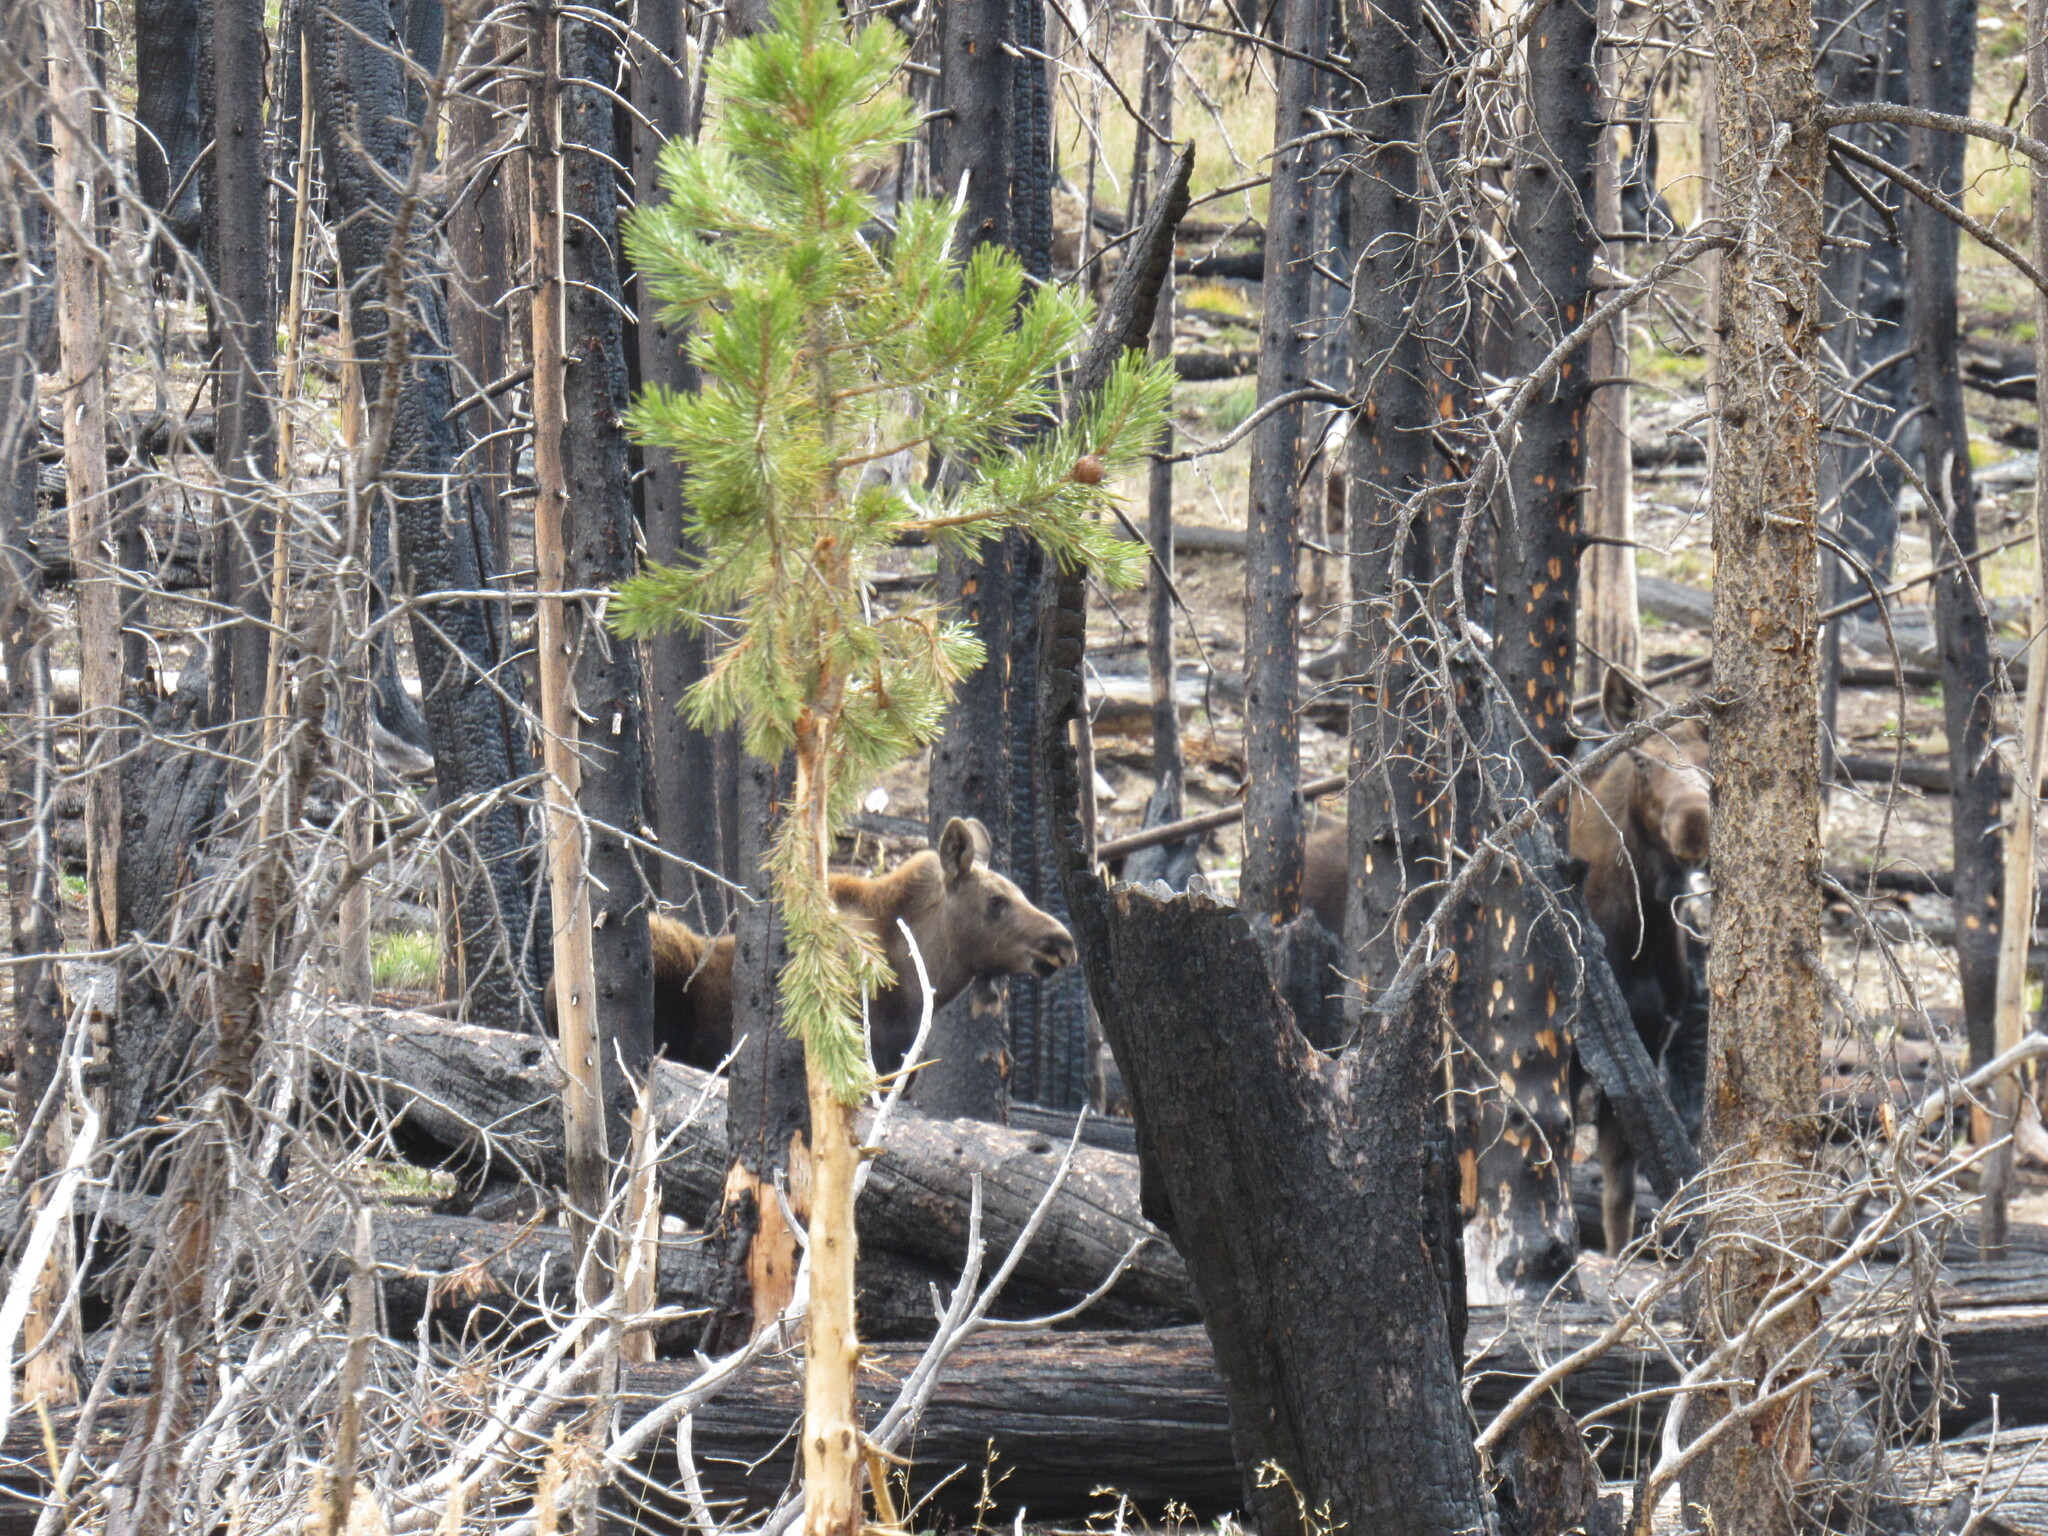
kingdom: Animalia
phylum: Chordata
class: Mammalia
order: Artiodactyla
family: Cervidae
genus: Alces
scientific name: Alces alces
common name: Moose
